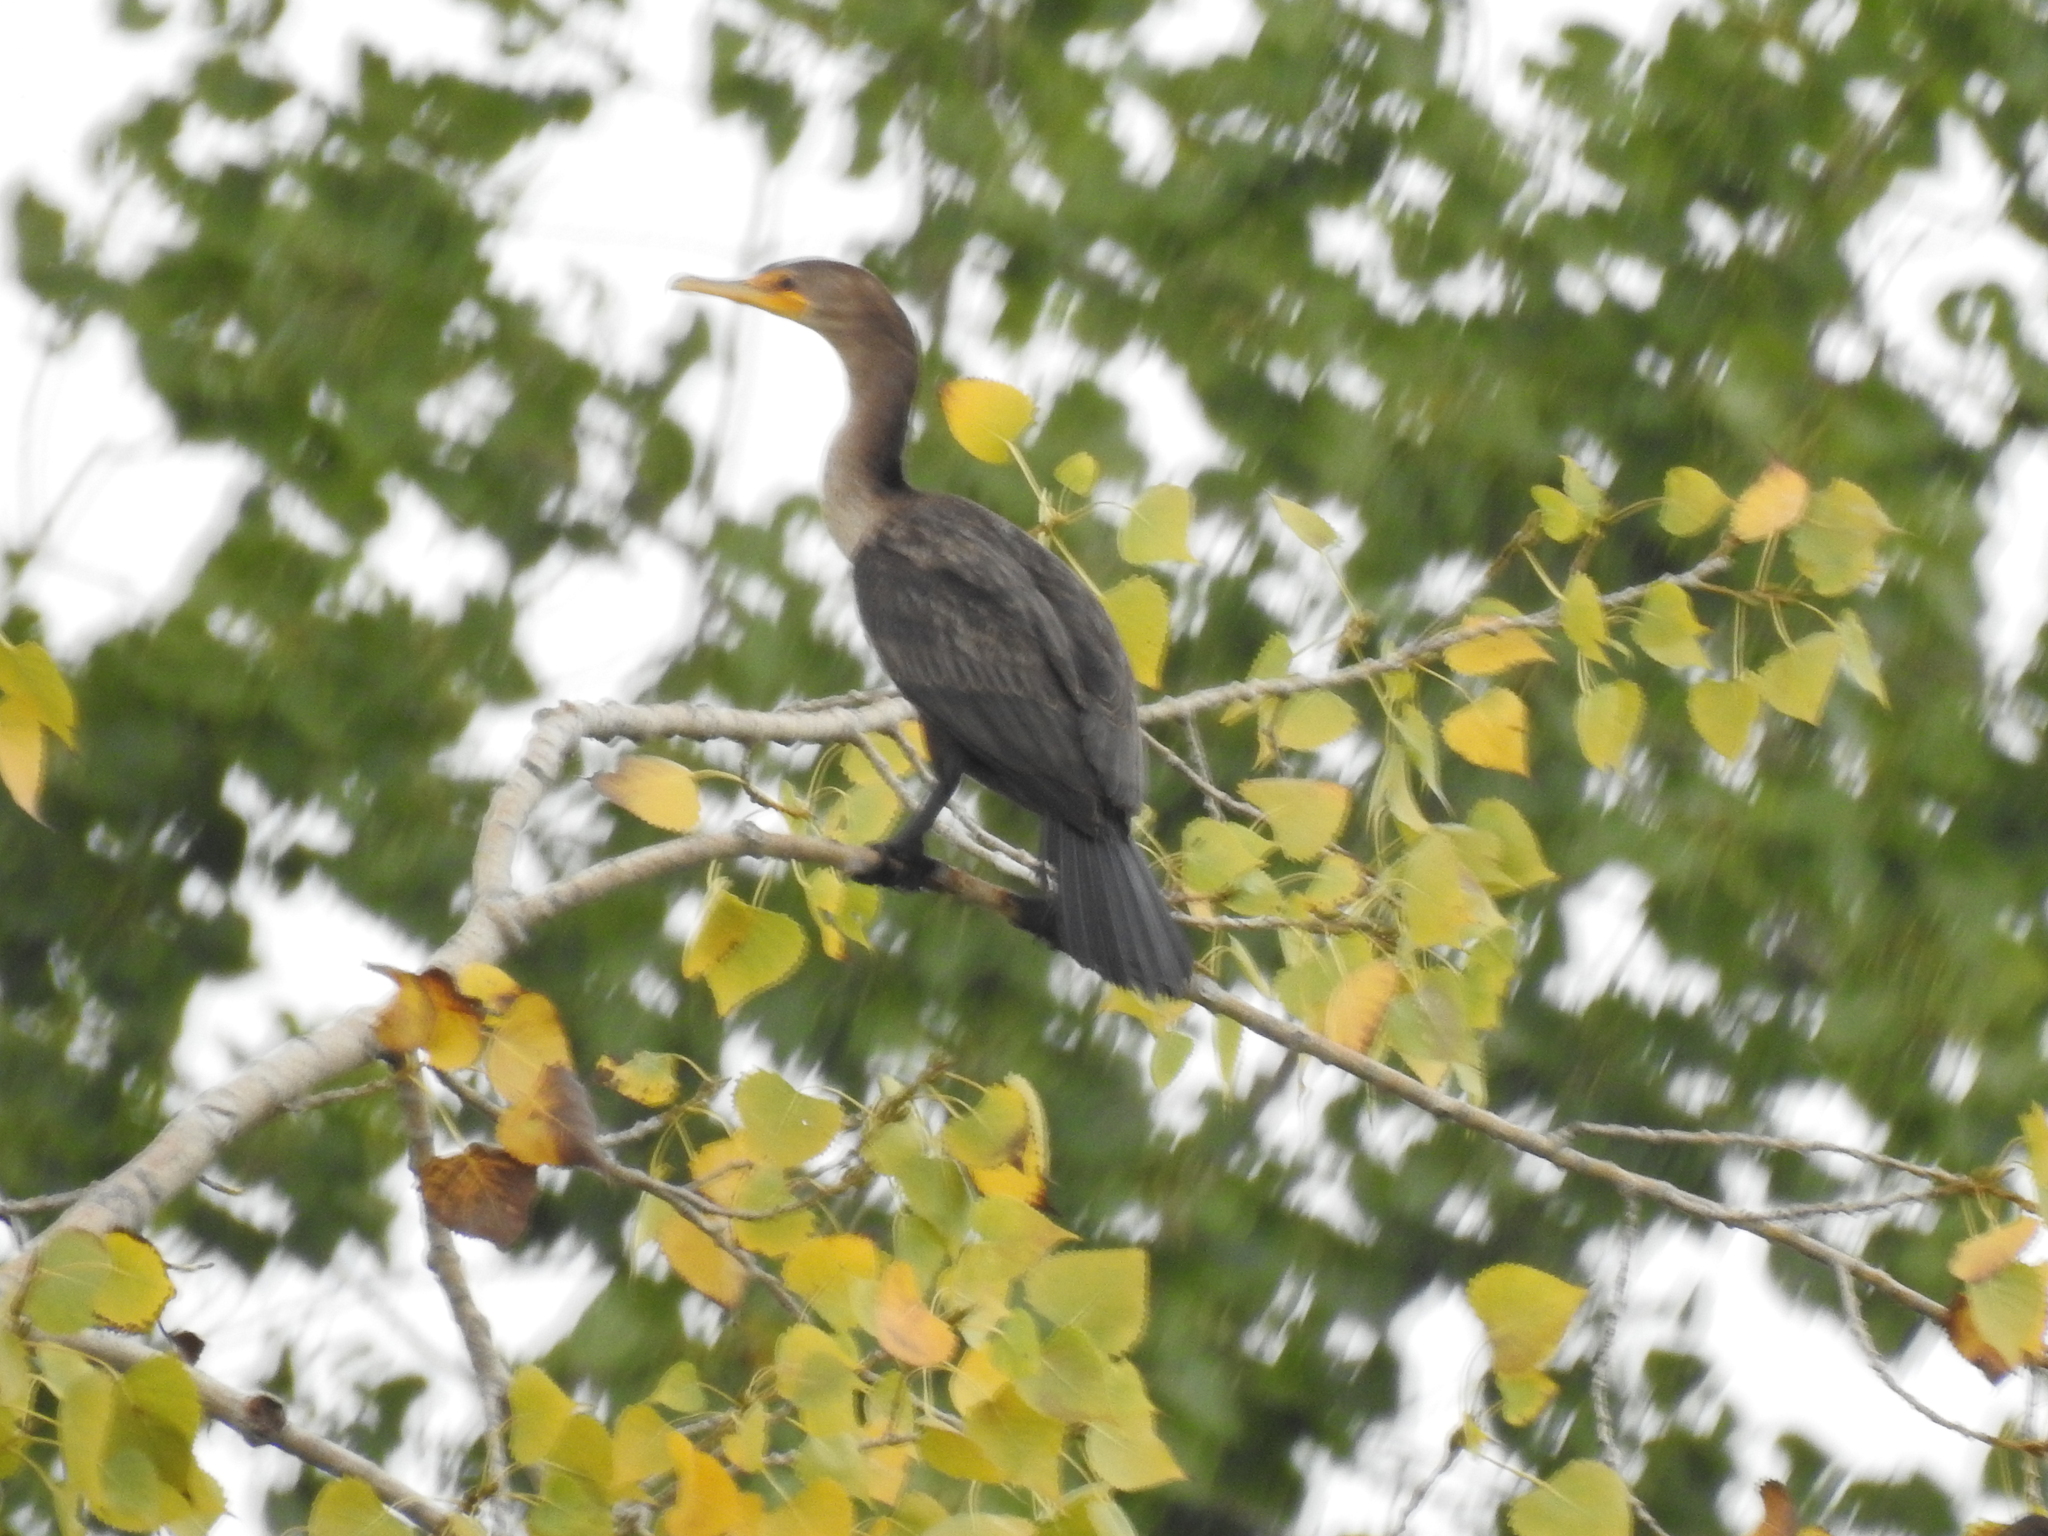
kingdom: Animalia
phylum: Chordata
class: Aves
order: Suliformes
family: Phalacrocoracidae
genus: Phalacrocorax
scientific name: Phalacrocorax auritus
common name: Double-crested cormorant
